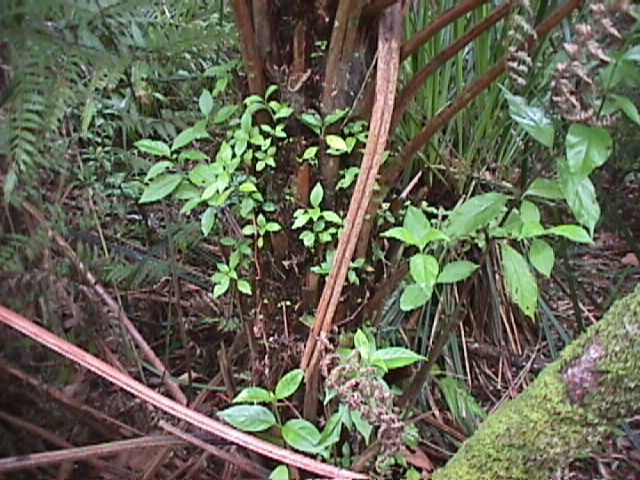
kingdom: Plantae
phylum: Tracheophyta
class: Magnoliopsida
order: Gentianales
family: Loganiaceae
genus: Geniostoma
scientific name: Geniostoma ligustrifolium
